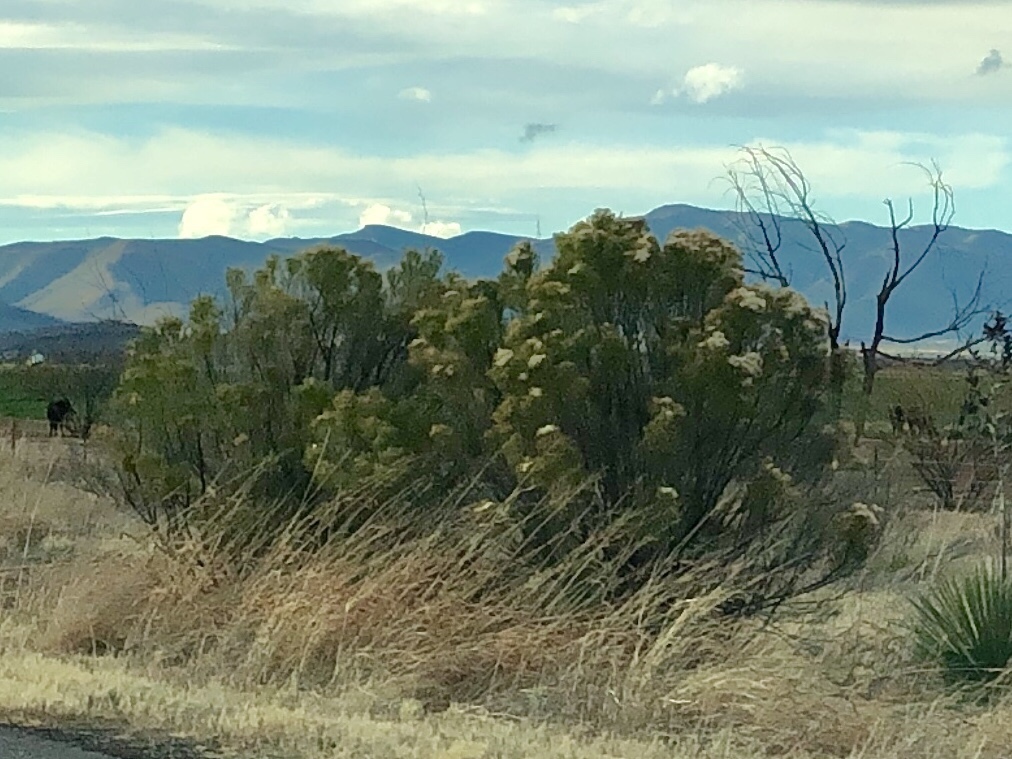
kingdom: Plantae
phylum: Tracheophyta
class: Magnoliopsida
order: Asterales
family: Asteraceae
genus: Baccharis
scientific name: Baccharis sarothroides
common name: Desert-broom
